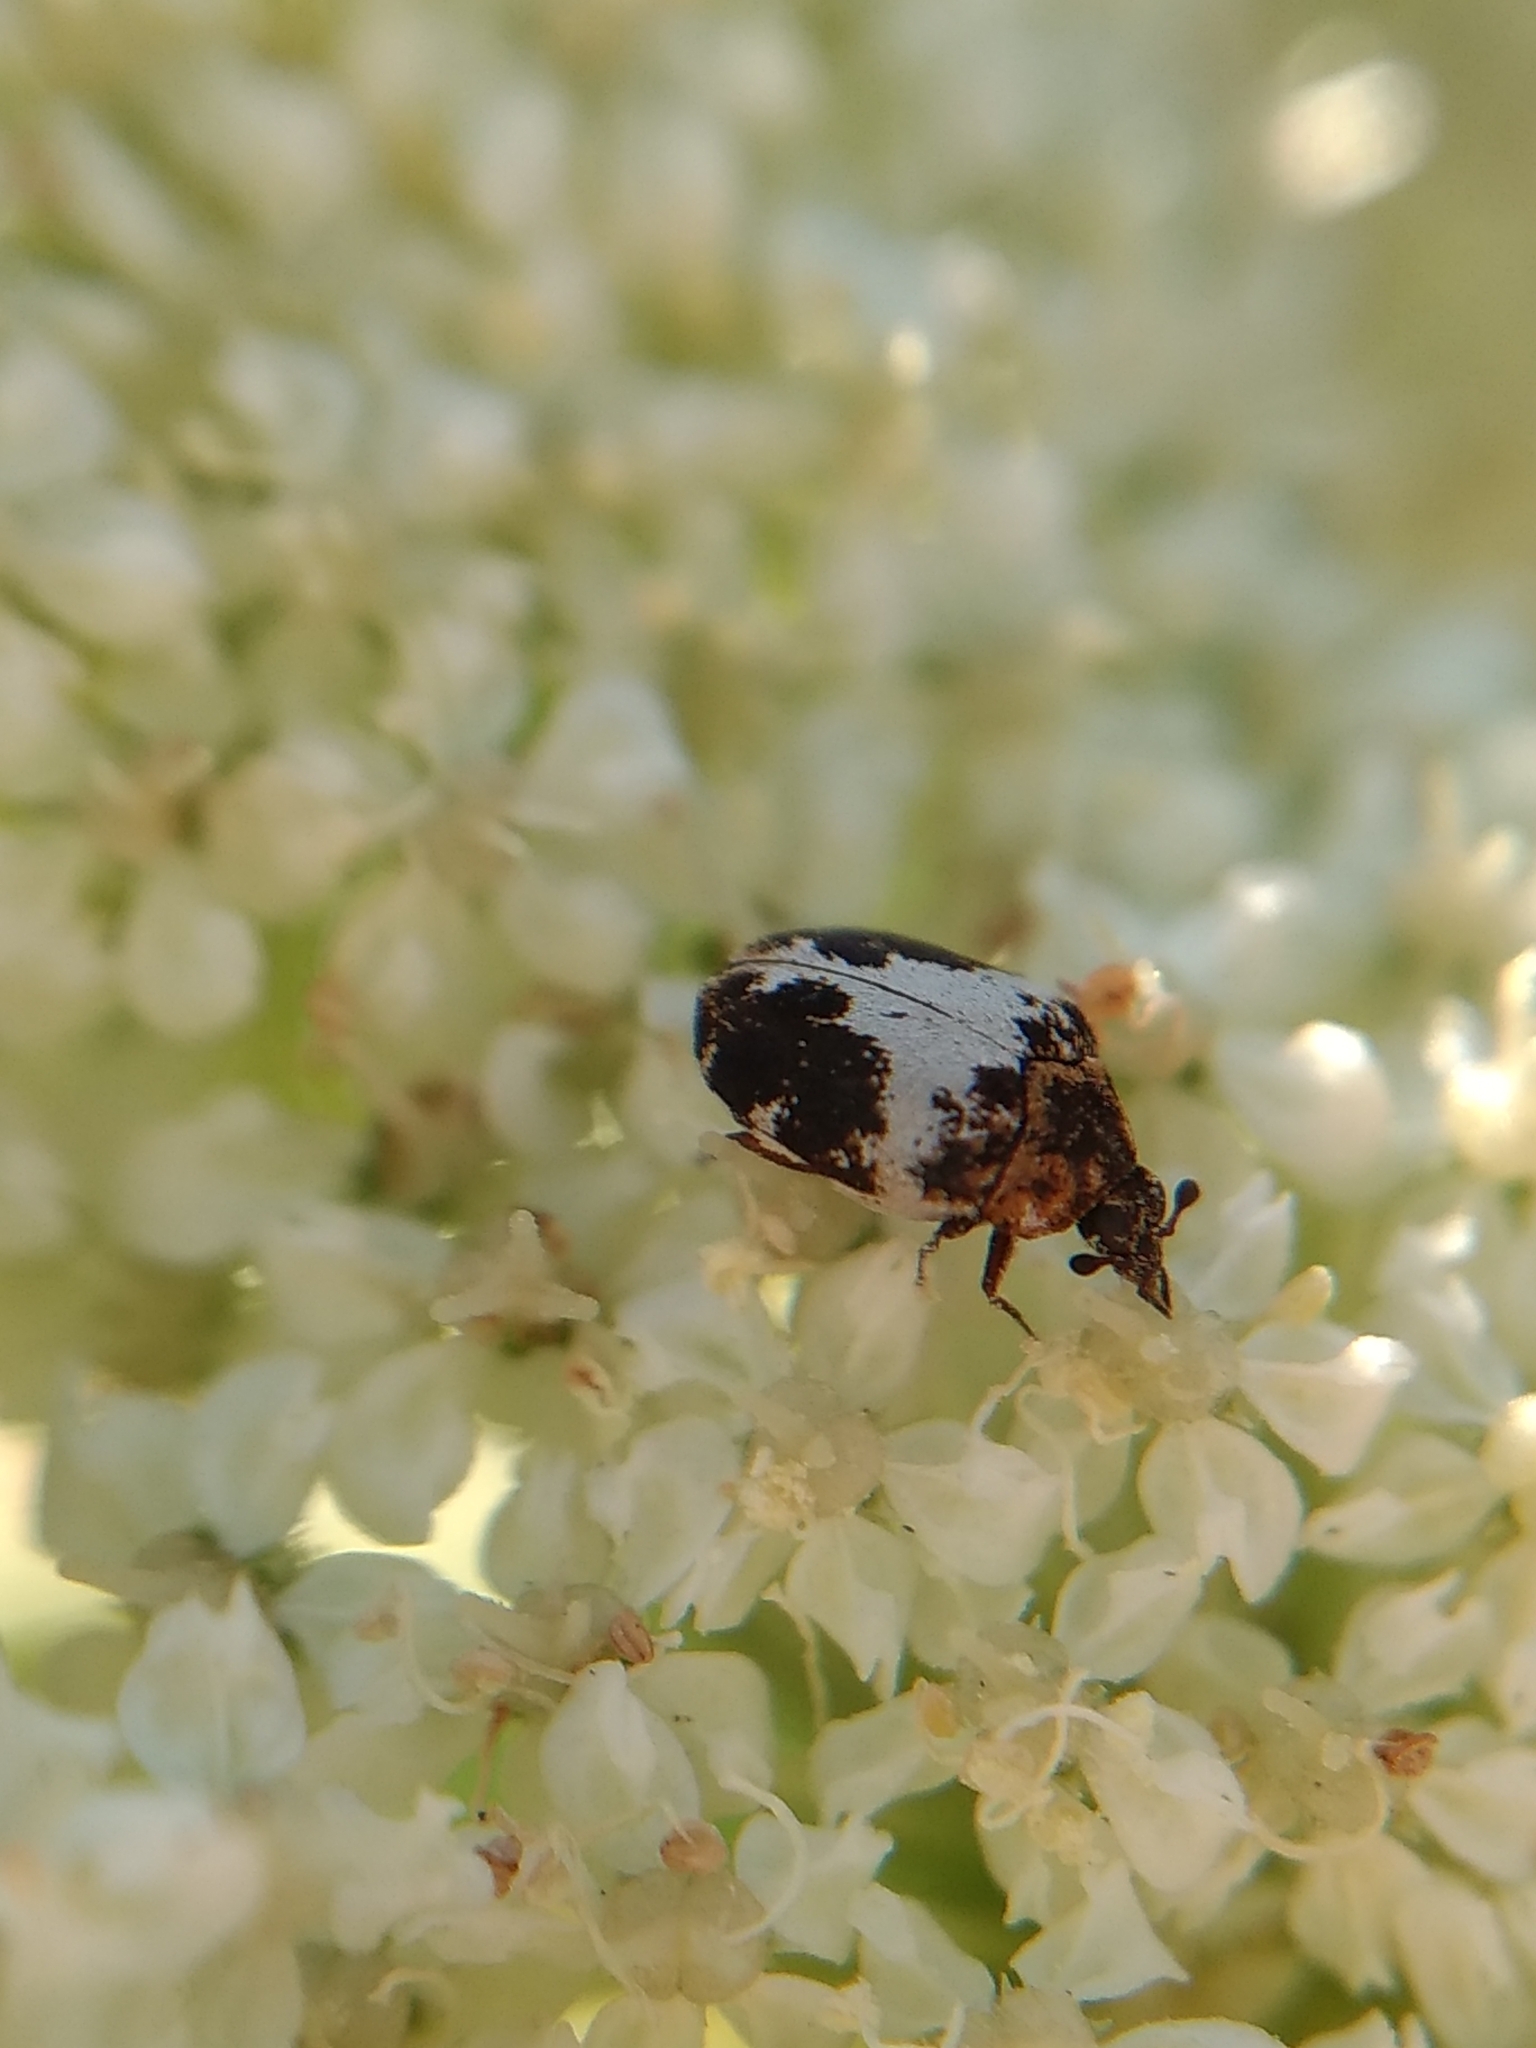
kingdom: Animalia
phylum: Arthropoda
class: Insecta
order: Coleoptera
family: Dermestidae
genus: Anthrenus
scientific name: Anthrenus sophonisba
